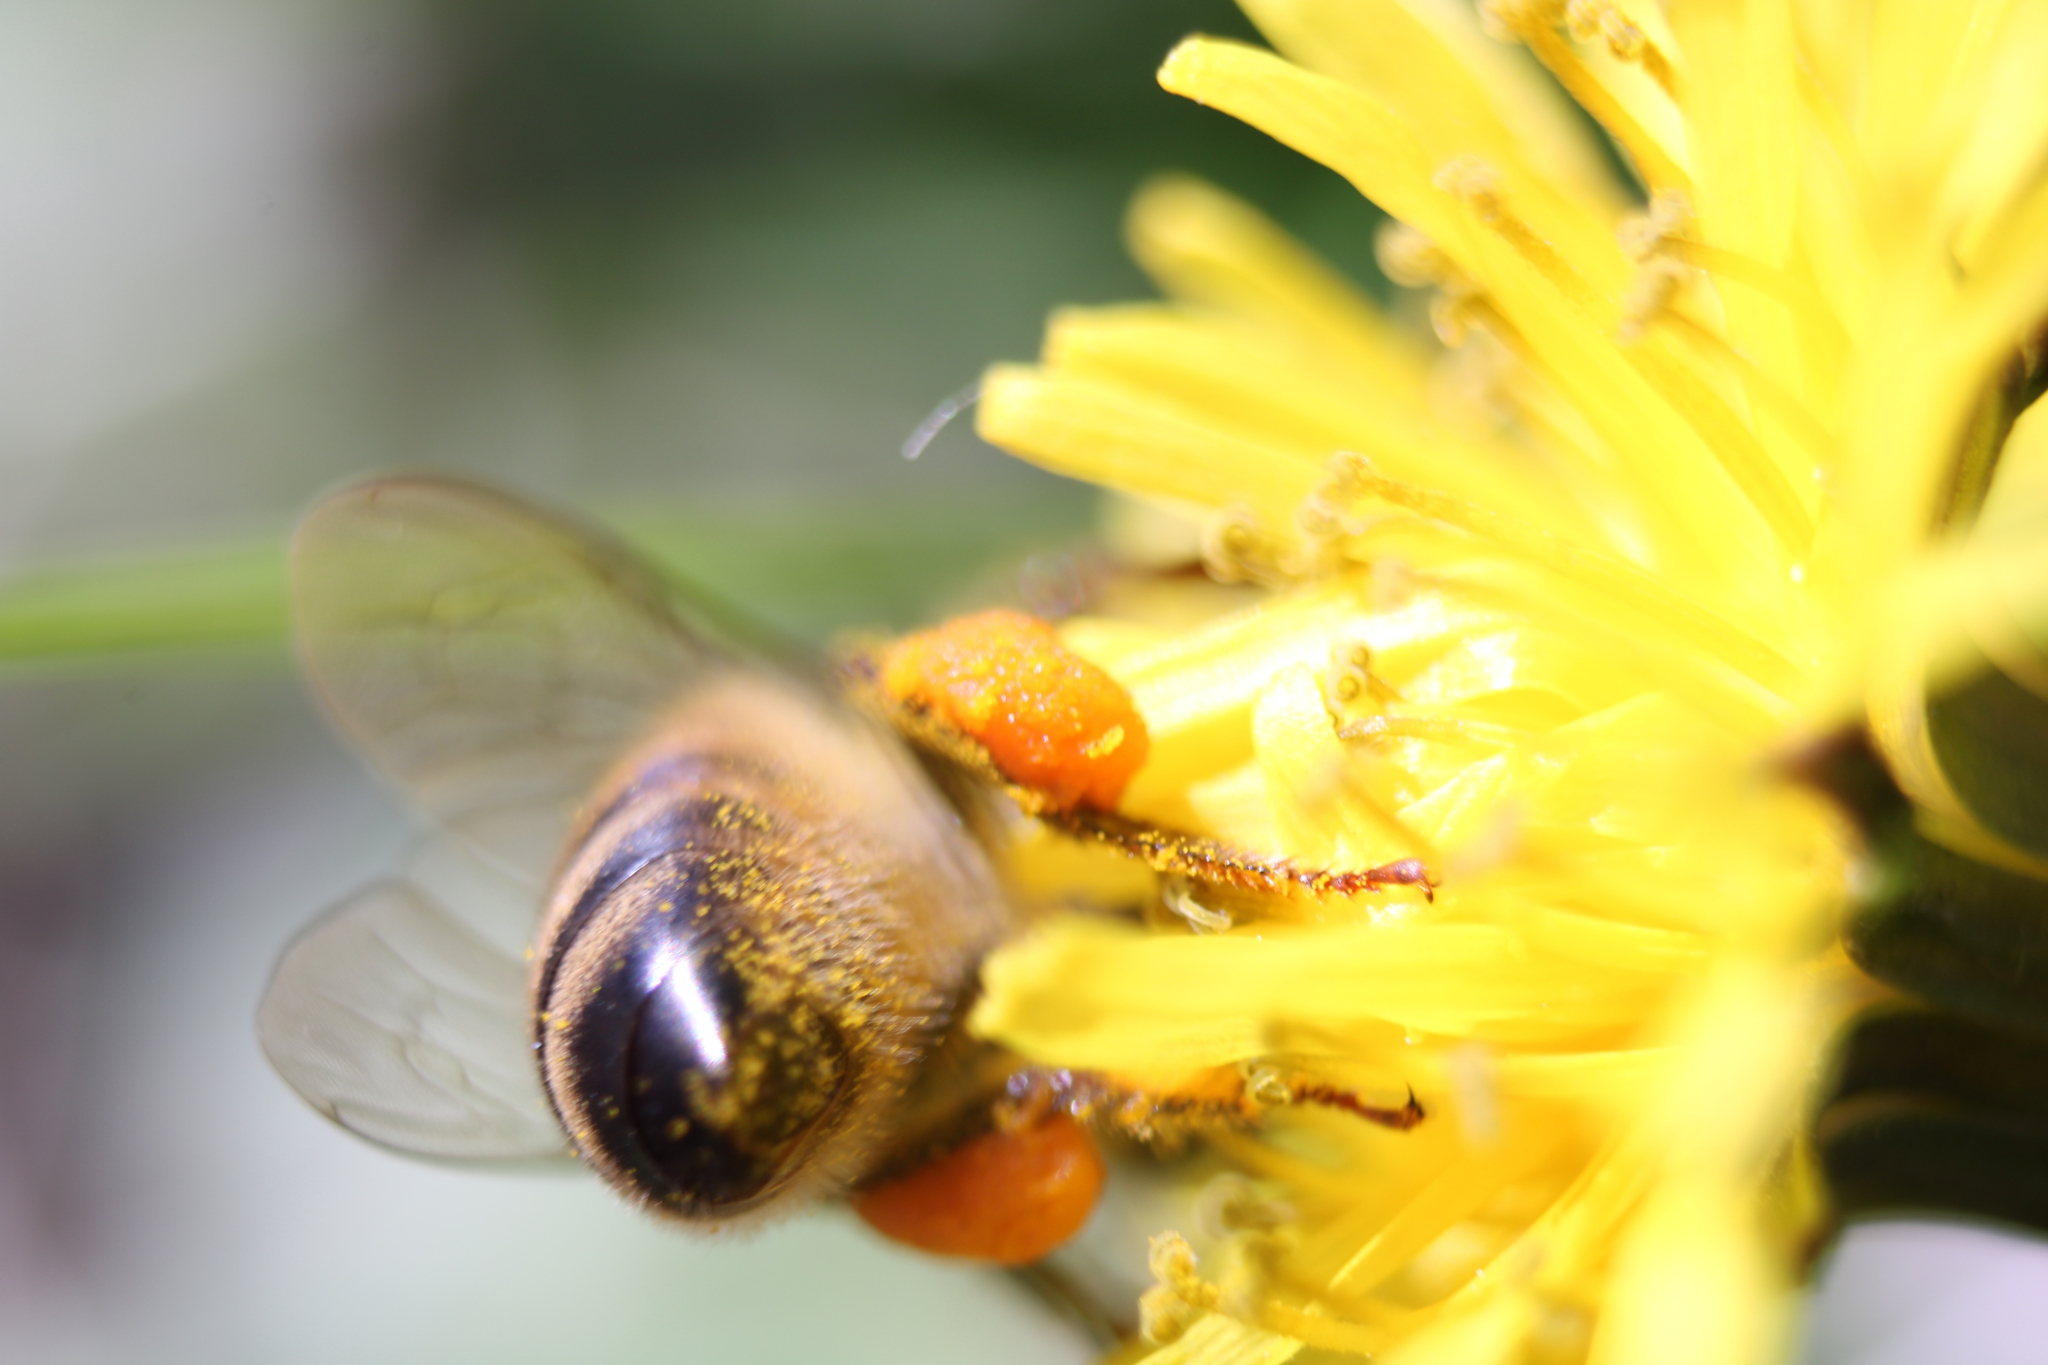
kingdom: Animalia
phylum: Arthropoda
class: Insecta
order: Hymenoptera
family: Apidae
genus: Apis
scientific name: Apis mellifera
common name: Honey bee
